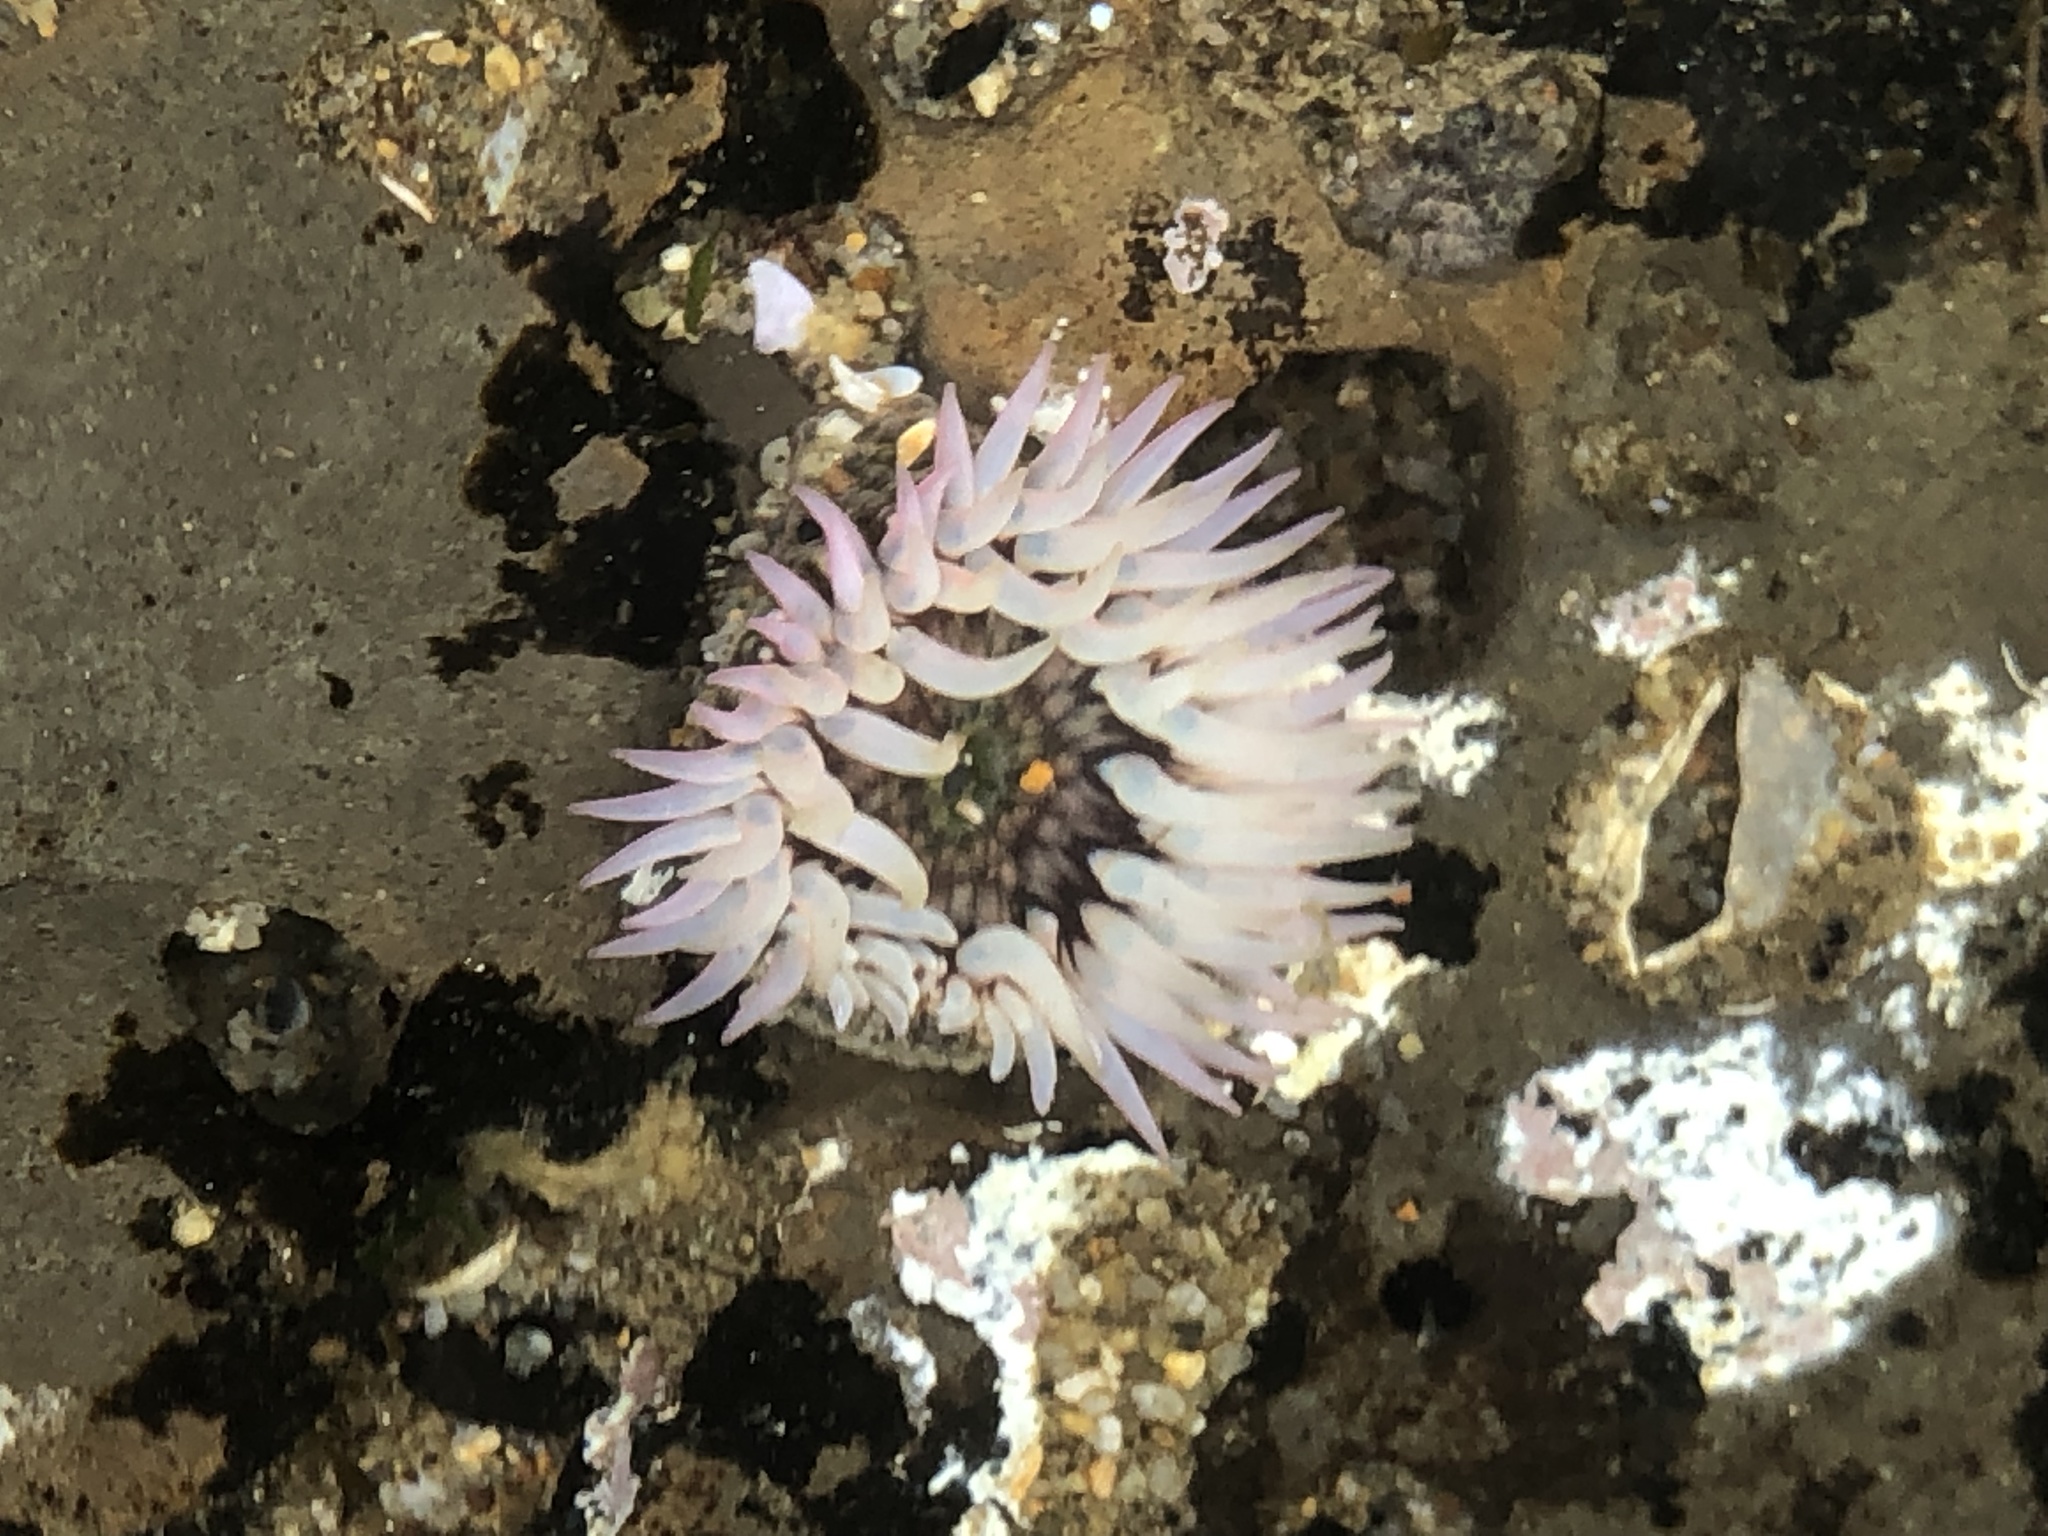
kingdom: Animalia
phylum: Cnidaria
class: Anthozoa
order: Actiniaria
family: Actiniidae
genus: Anthopleura
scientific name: Anthopleura artemisia
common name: Buried sea anemone
